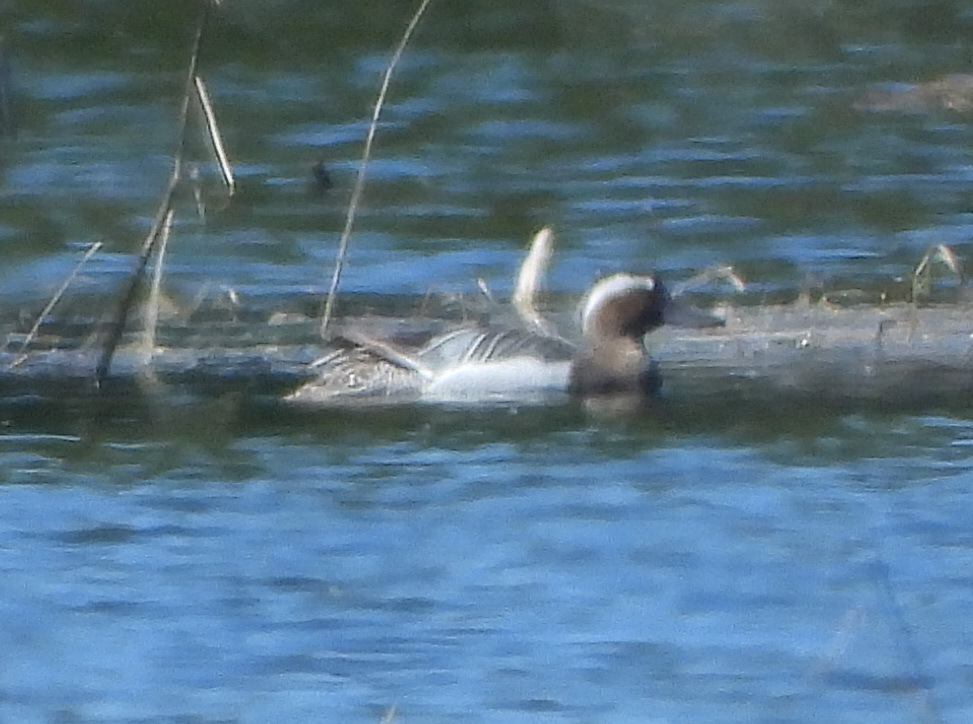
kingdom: Animalia
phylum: Chordata
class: Aves
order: Anseriformes
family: Anatidae
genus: Spatula
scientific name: Spatula querquedula
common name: Garganey
